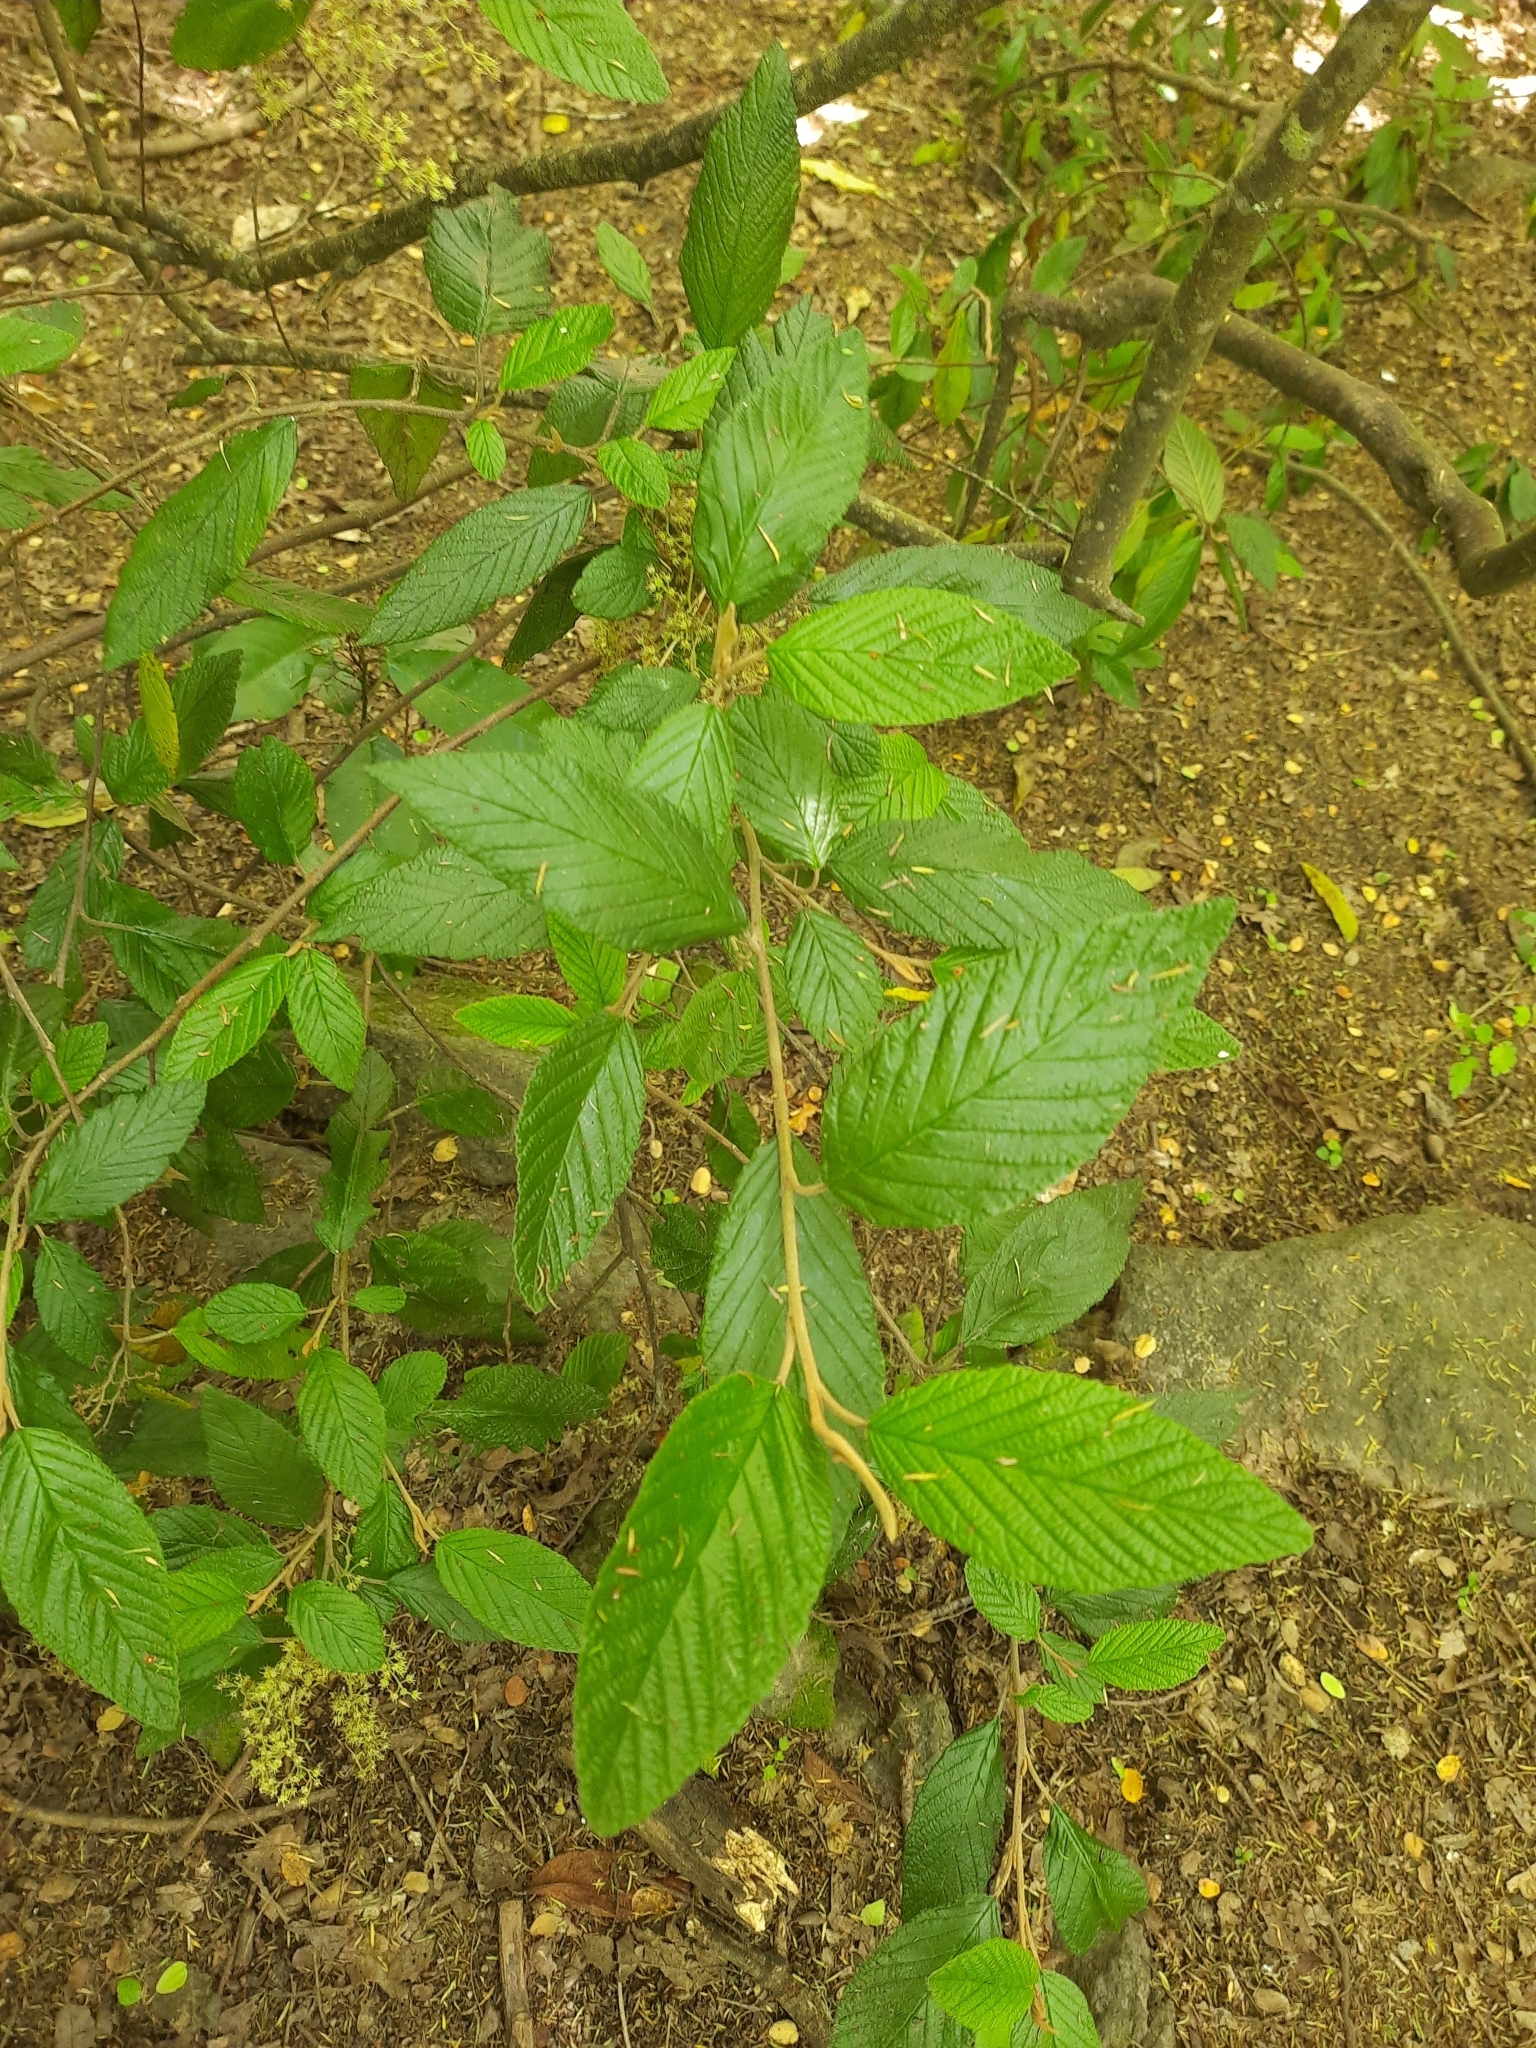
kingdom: Plantae
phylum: Tracheophyta
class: Magnoliopsida
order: Rosales
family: Rhamnaceae
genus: Pomaderris
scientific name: Pomaderris aspera
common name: Hazel pomaderris
